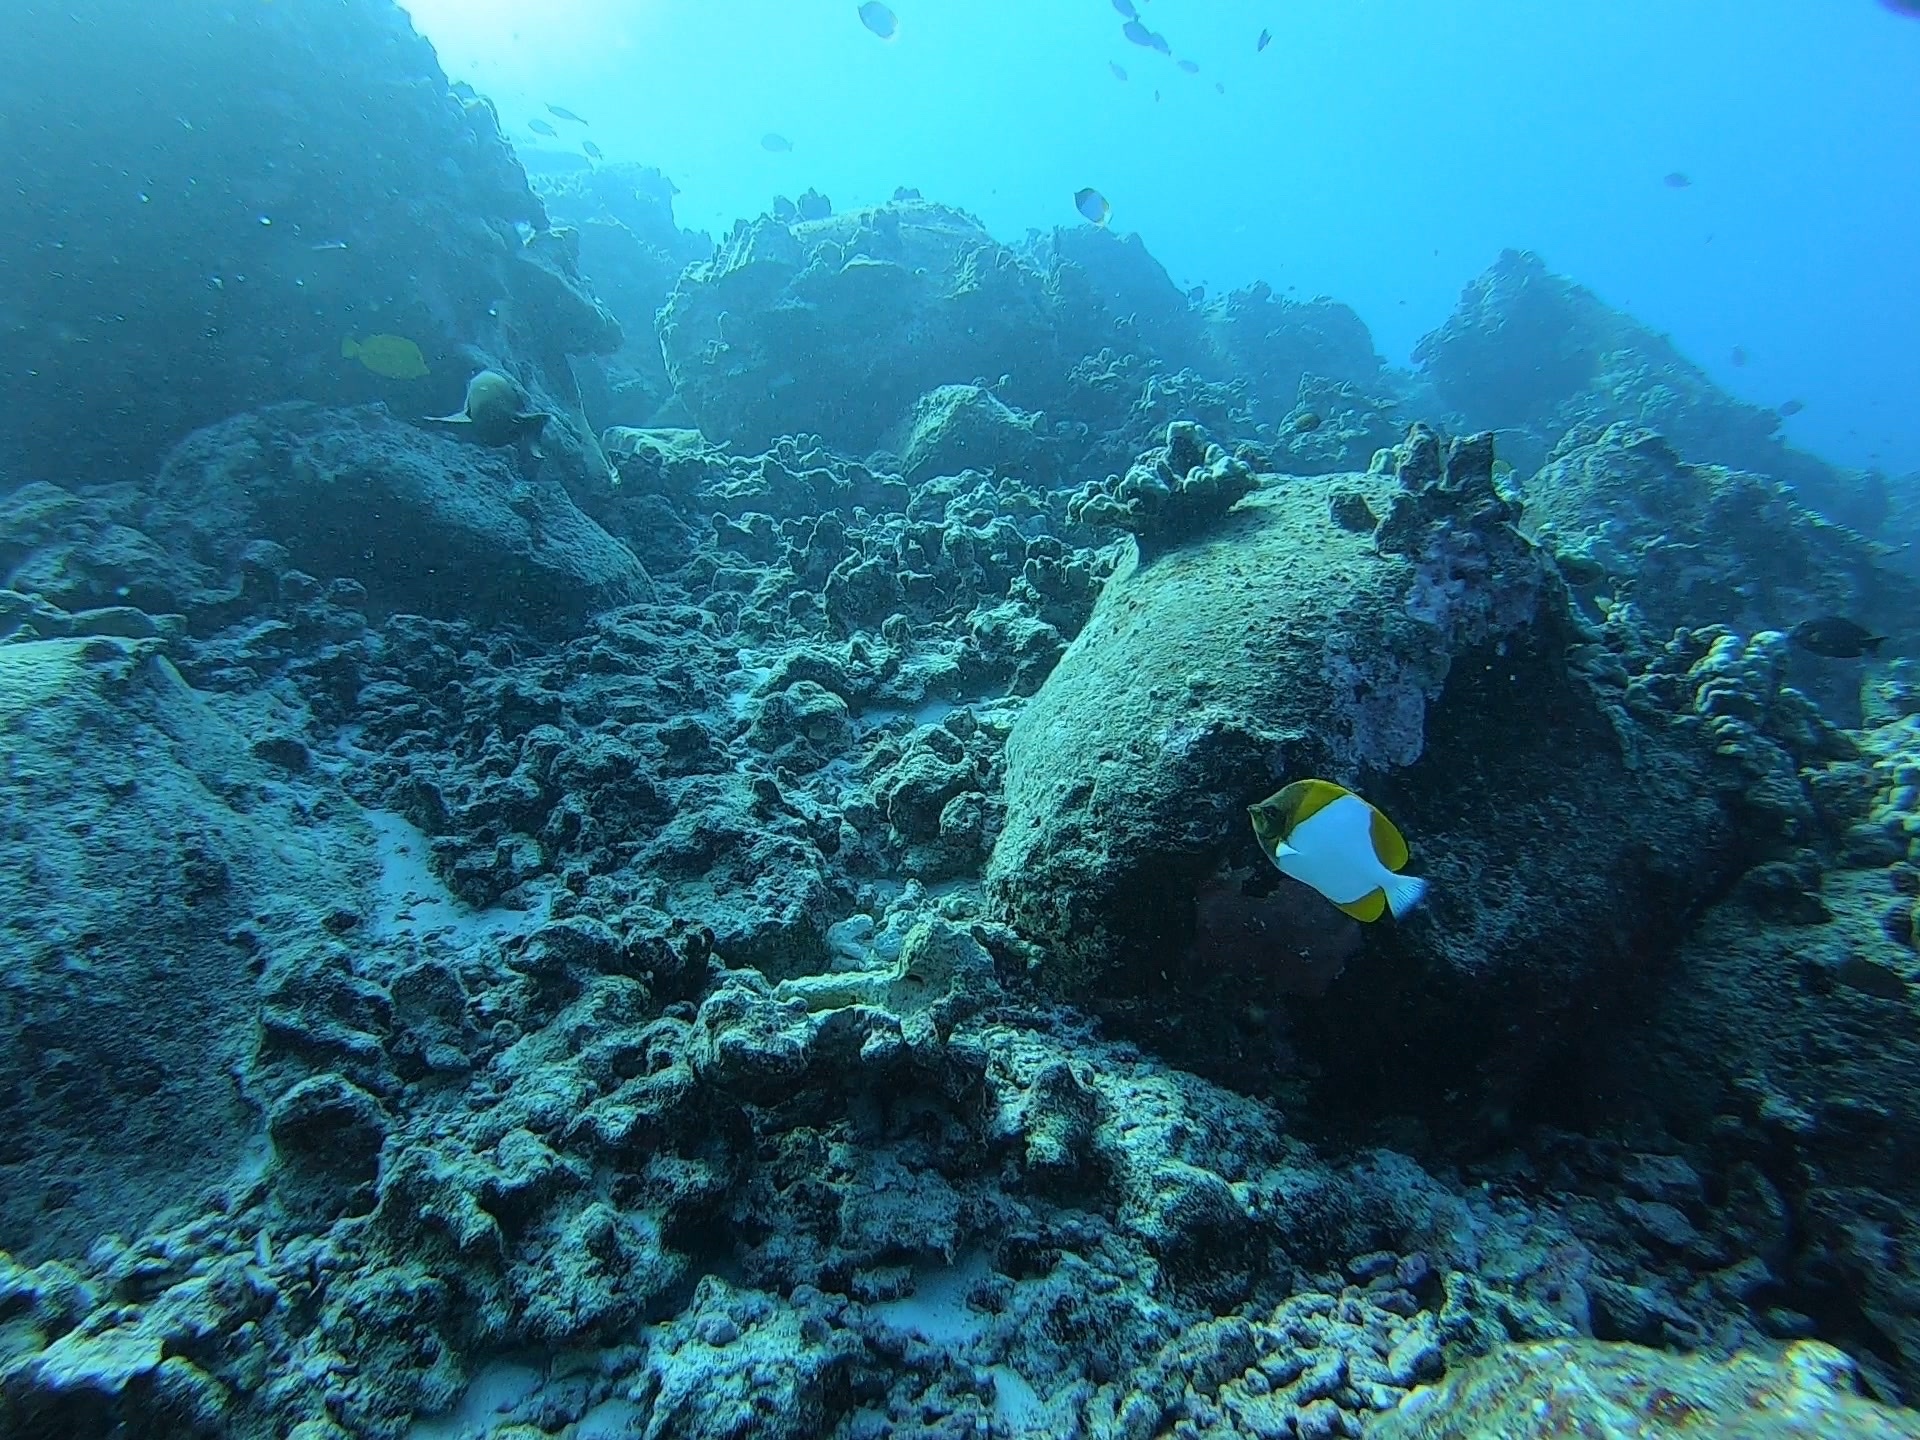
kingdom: Animalia
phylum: Chordata
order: Perciformes
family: Chaetodontidae
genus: Hemitaurichthys
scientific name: Hemitaurichthys polylepis
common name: Brushytoothed butterflyfish
